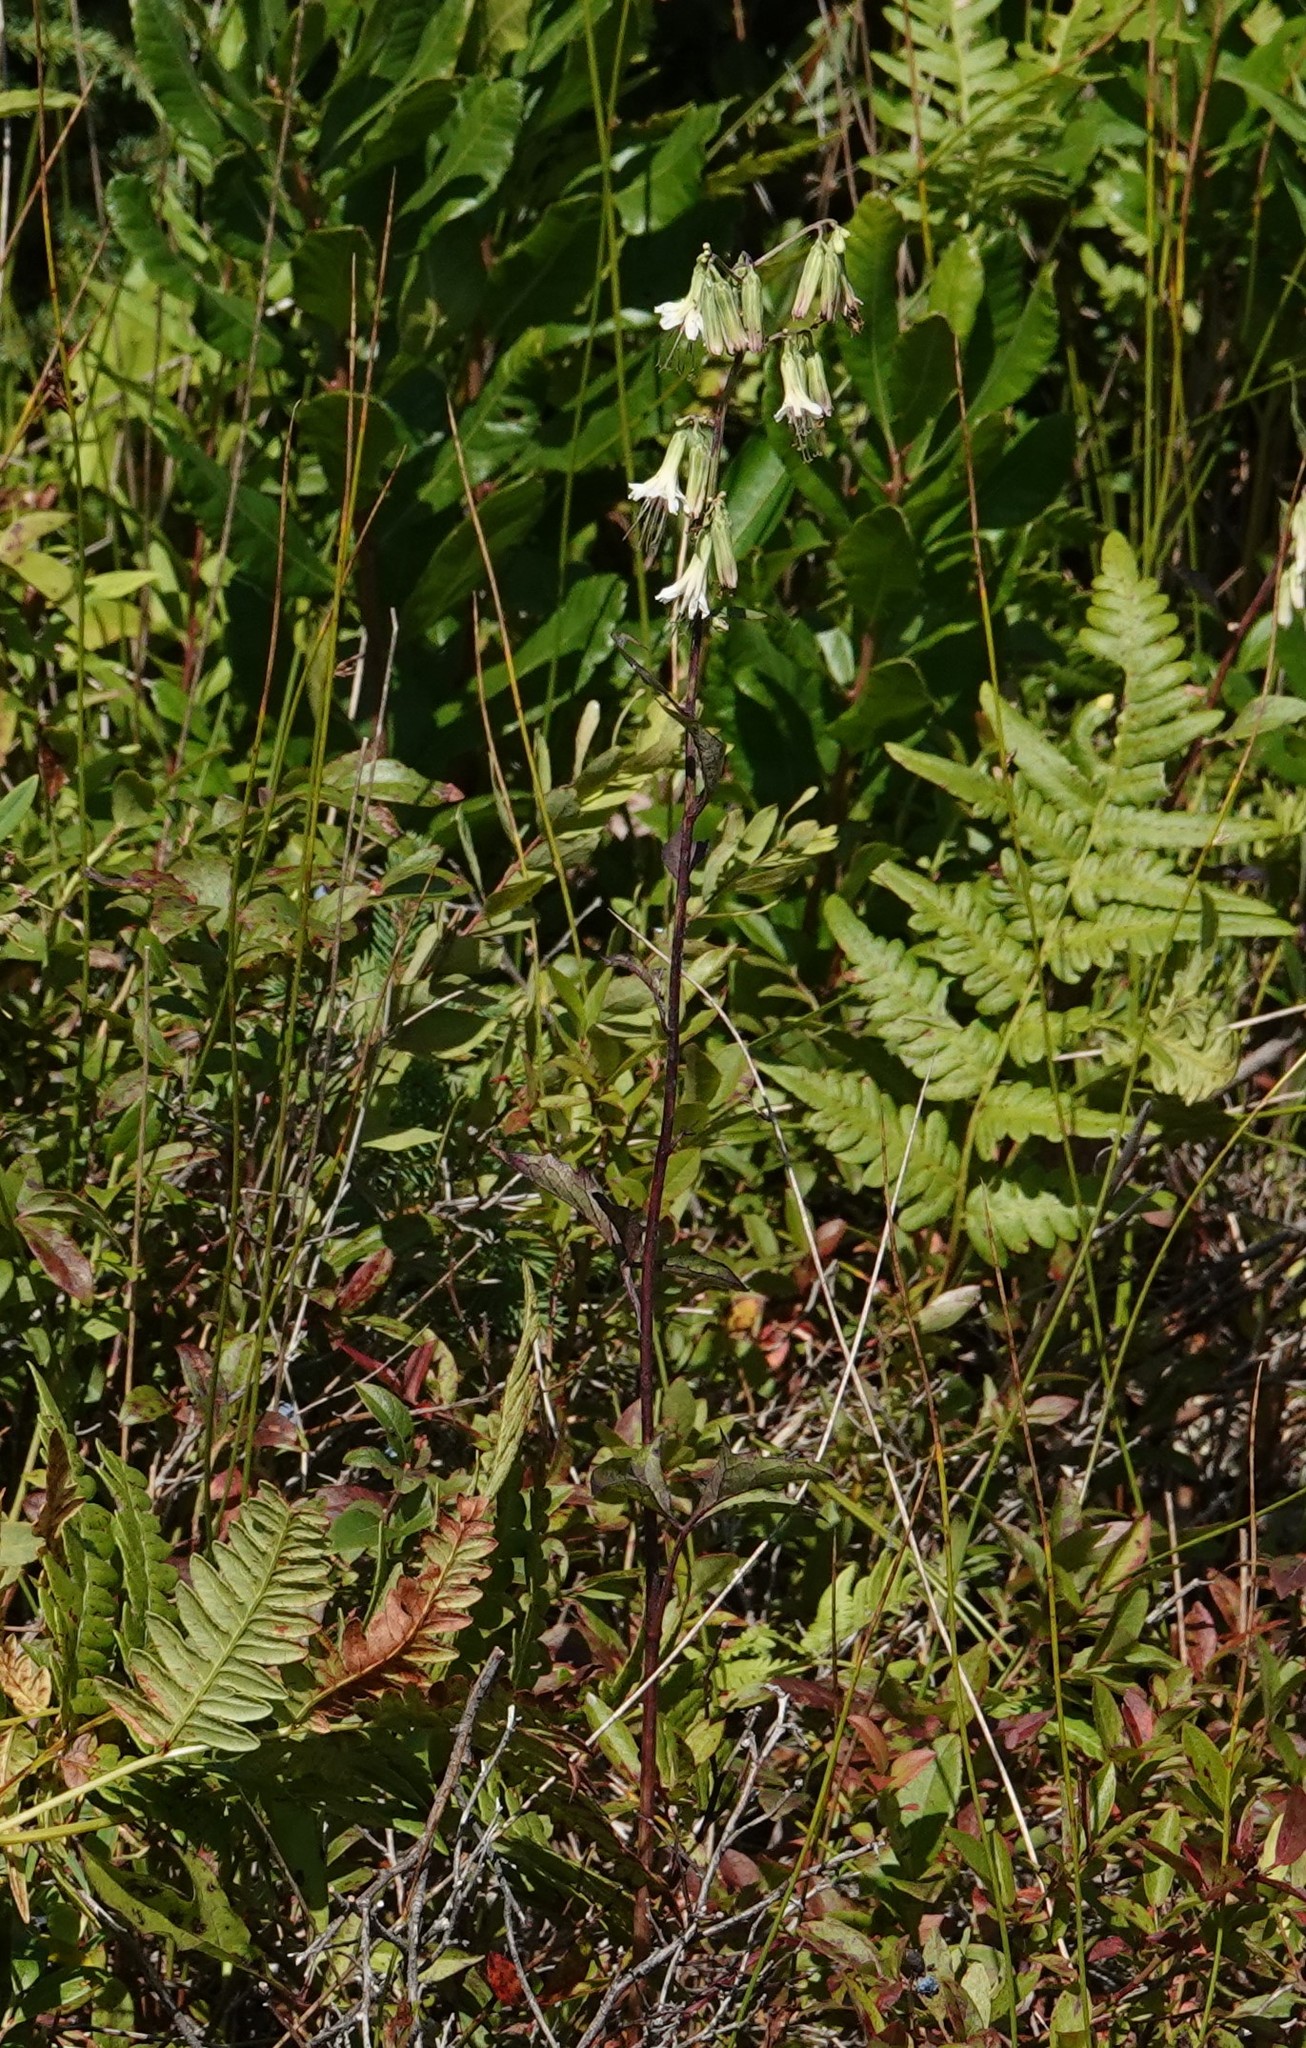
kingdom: Plantae
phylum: Tracheophyta
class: Magnoliopsida
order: Asterales
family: Asteraceae
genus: Nabalus
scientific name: Nabalus trifoliolatus
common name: Gall-of-the-earth
